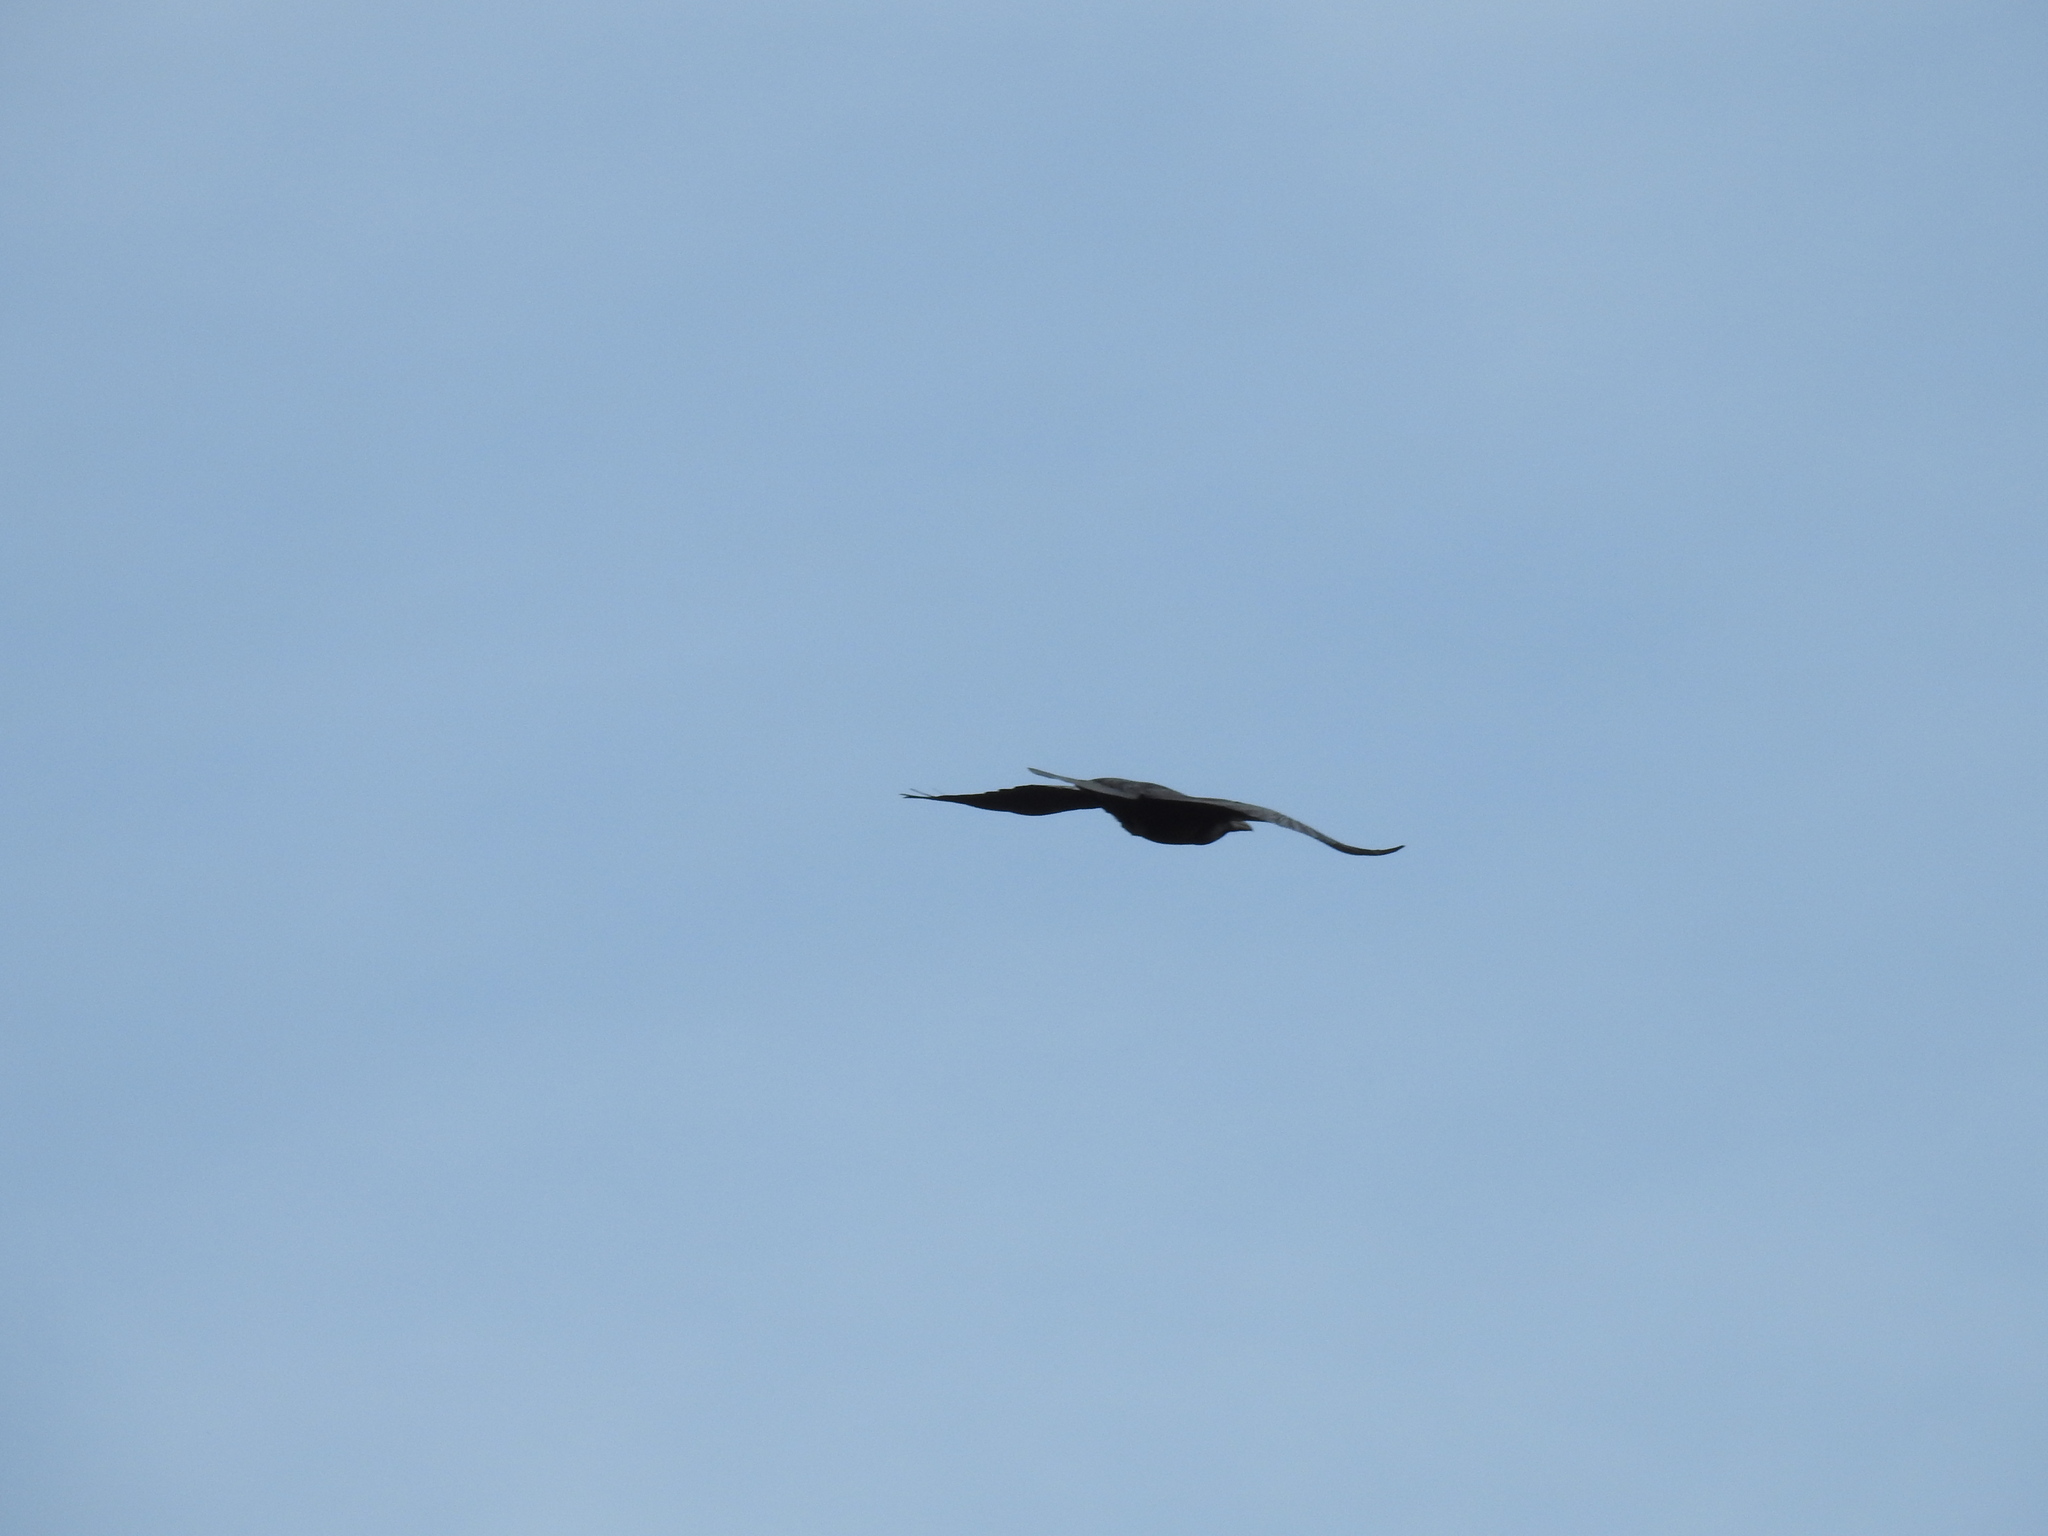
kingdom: Animalia
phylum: Chordata
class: Aves
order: Passeriformes
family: Corvidae
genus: Corvus
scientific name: Corvus corax
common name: Common raven
